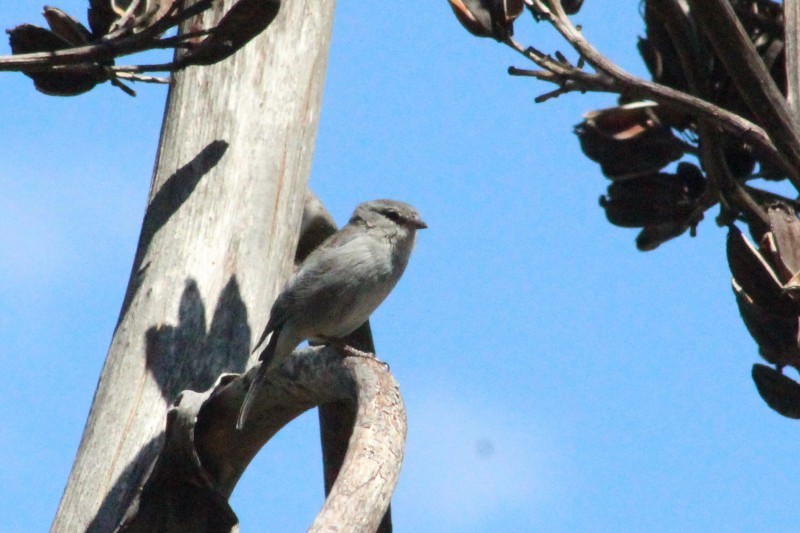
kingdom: Animalia
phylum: Chordata
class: Aves
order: Passeriformes
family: Thraupidae
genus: Geospizopsis
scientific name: Geospizopsis plebejus
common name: Ash-breasted sierra-finch
